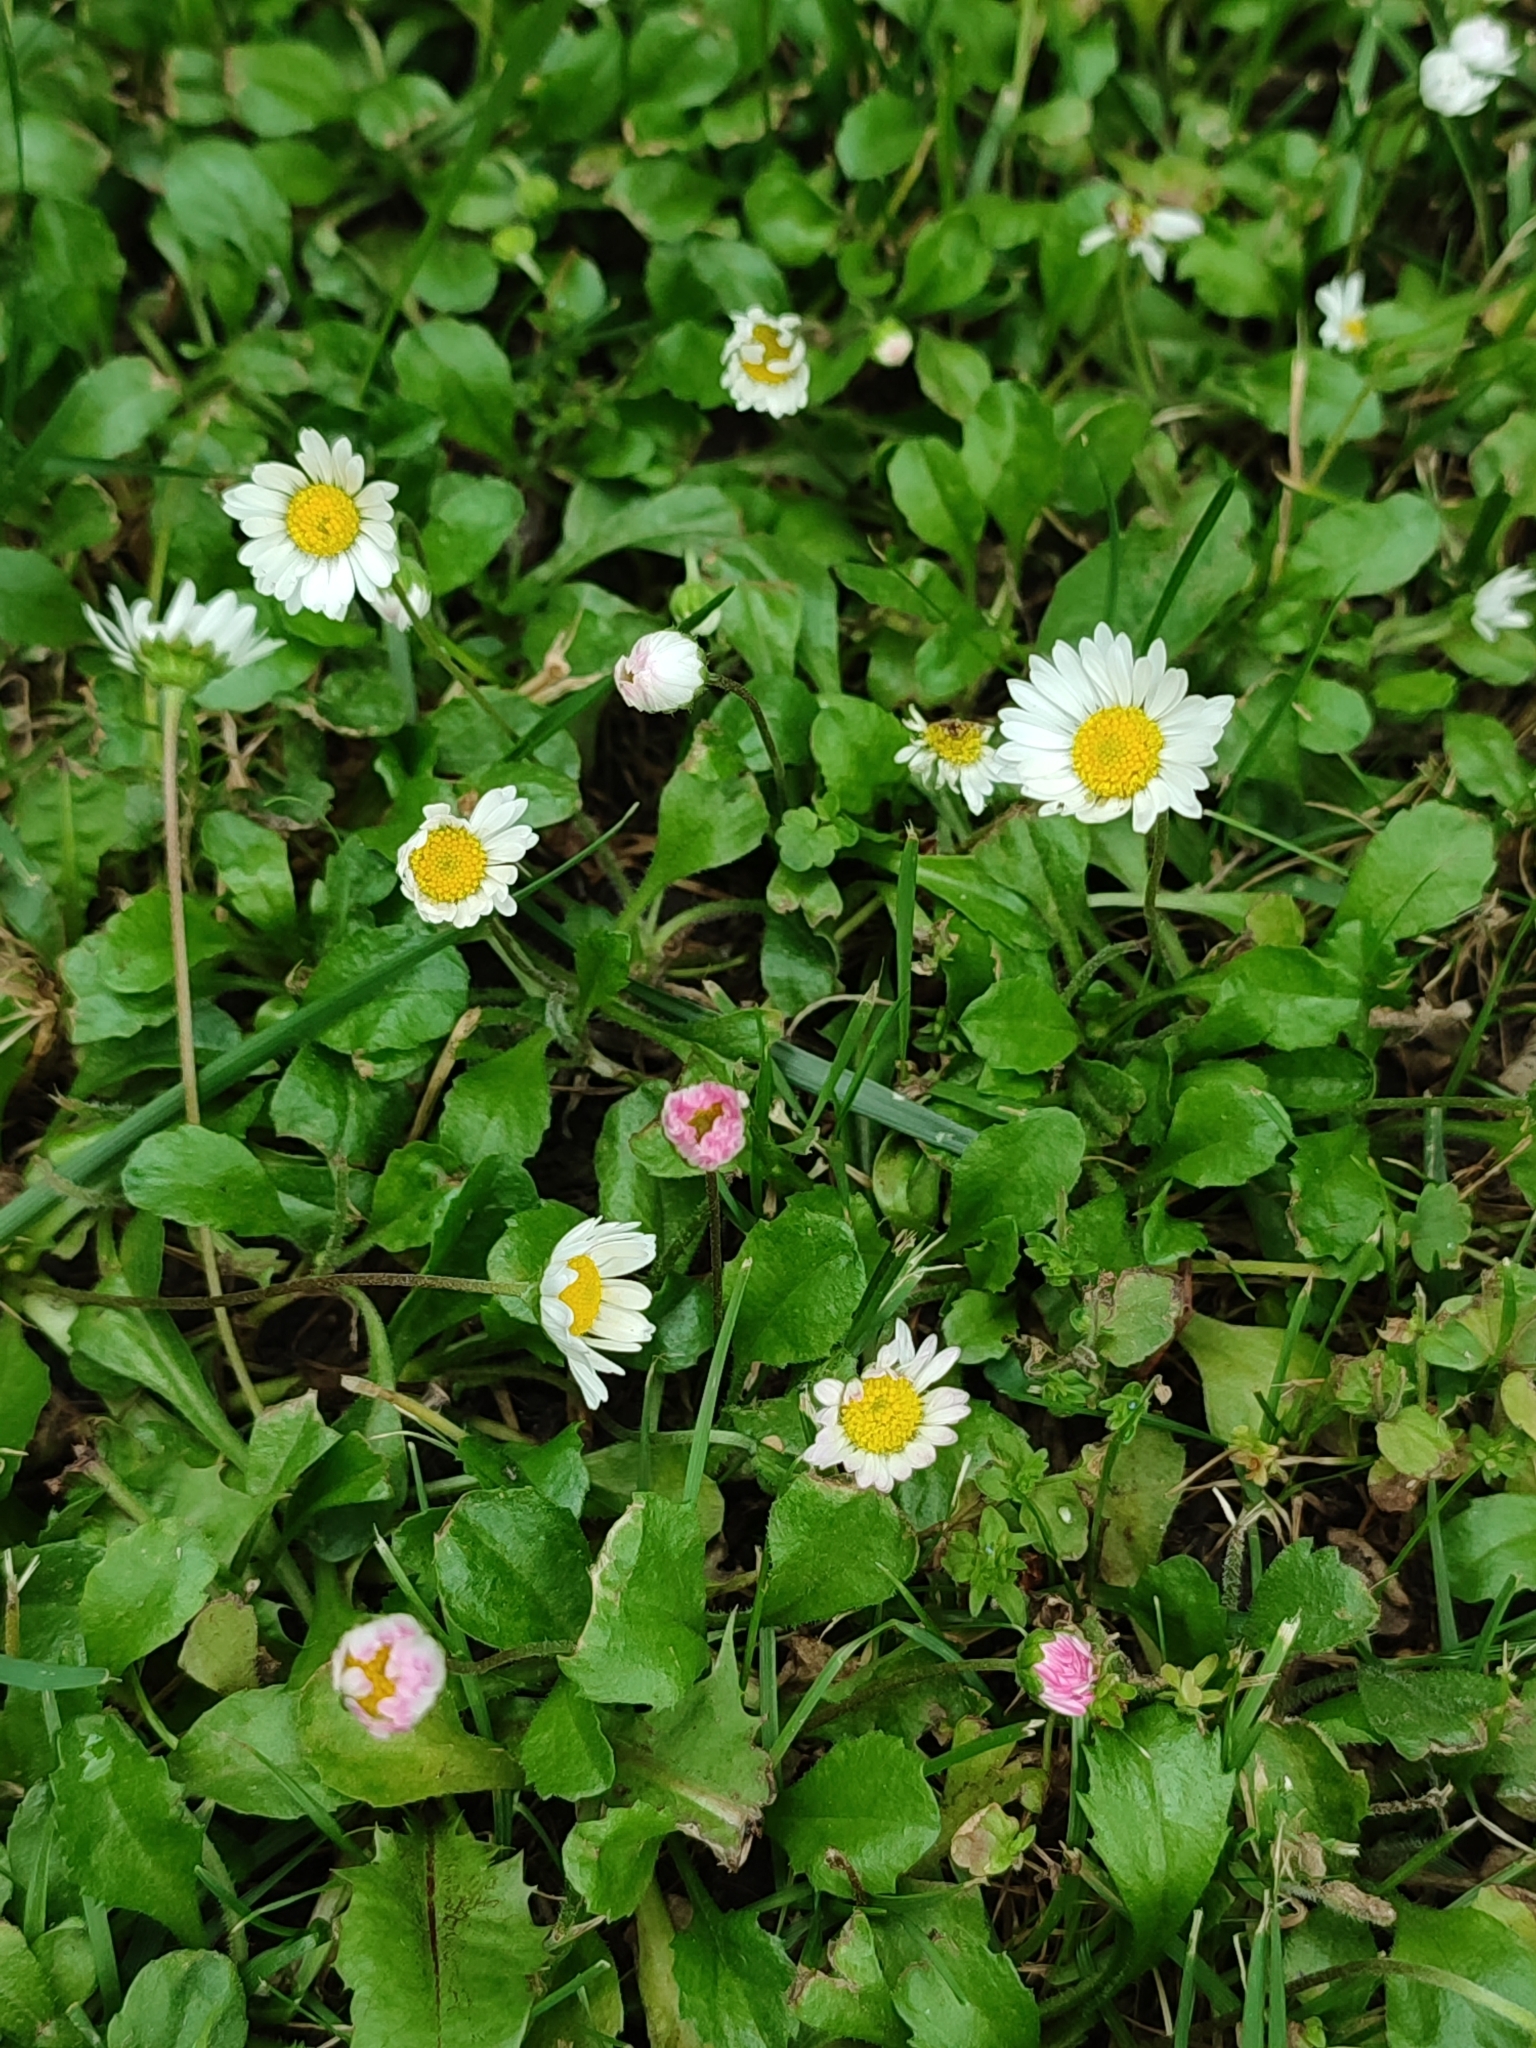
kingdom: Plantae
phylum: Tracheophyta
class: Magnoliopsida
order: Asterales
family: Asteraceae
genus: Bellis
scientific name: Bellis perennis
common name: Lawndaisy
